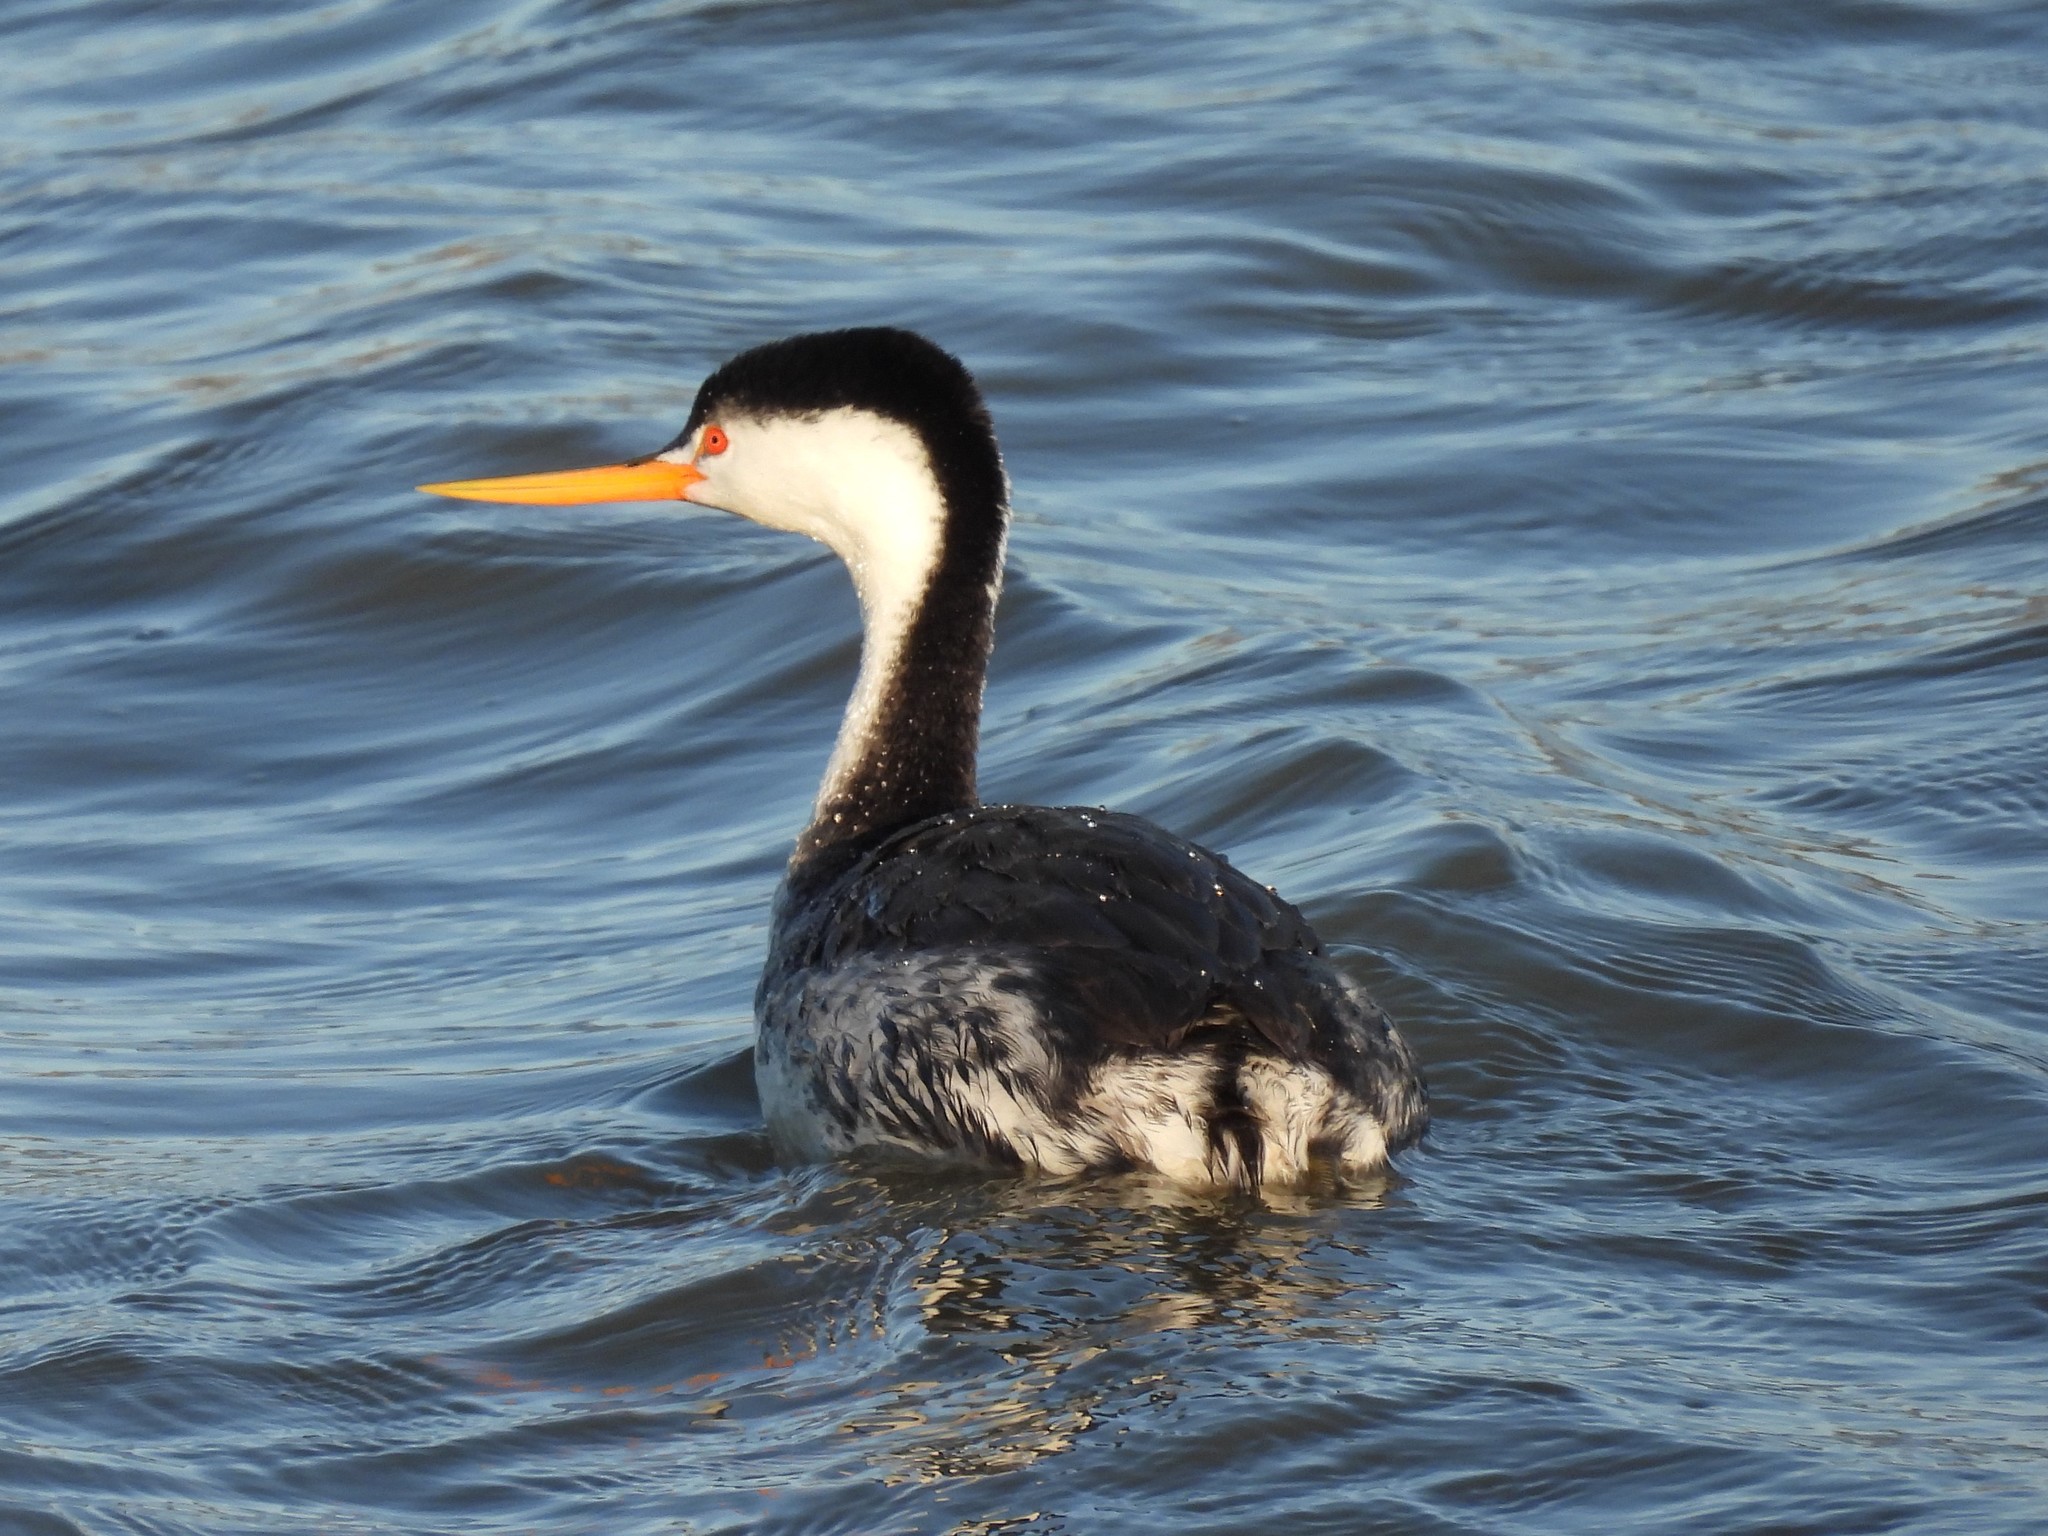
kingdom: Animalia
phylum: Chordata
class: Aves
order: Podicipediformes
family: Podicipedidae
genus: Aechmophorus
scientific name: Aechmophorus clarkii
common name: Clark's grebe
